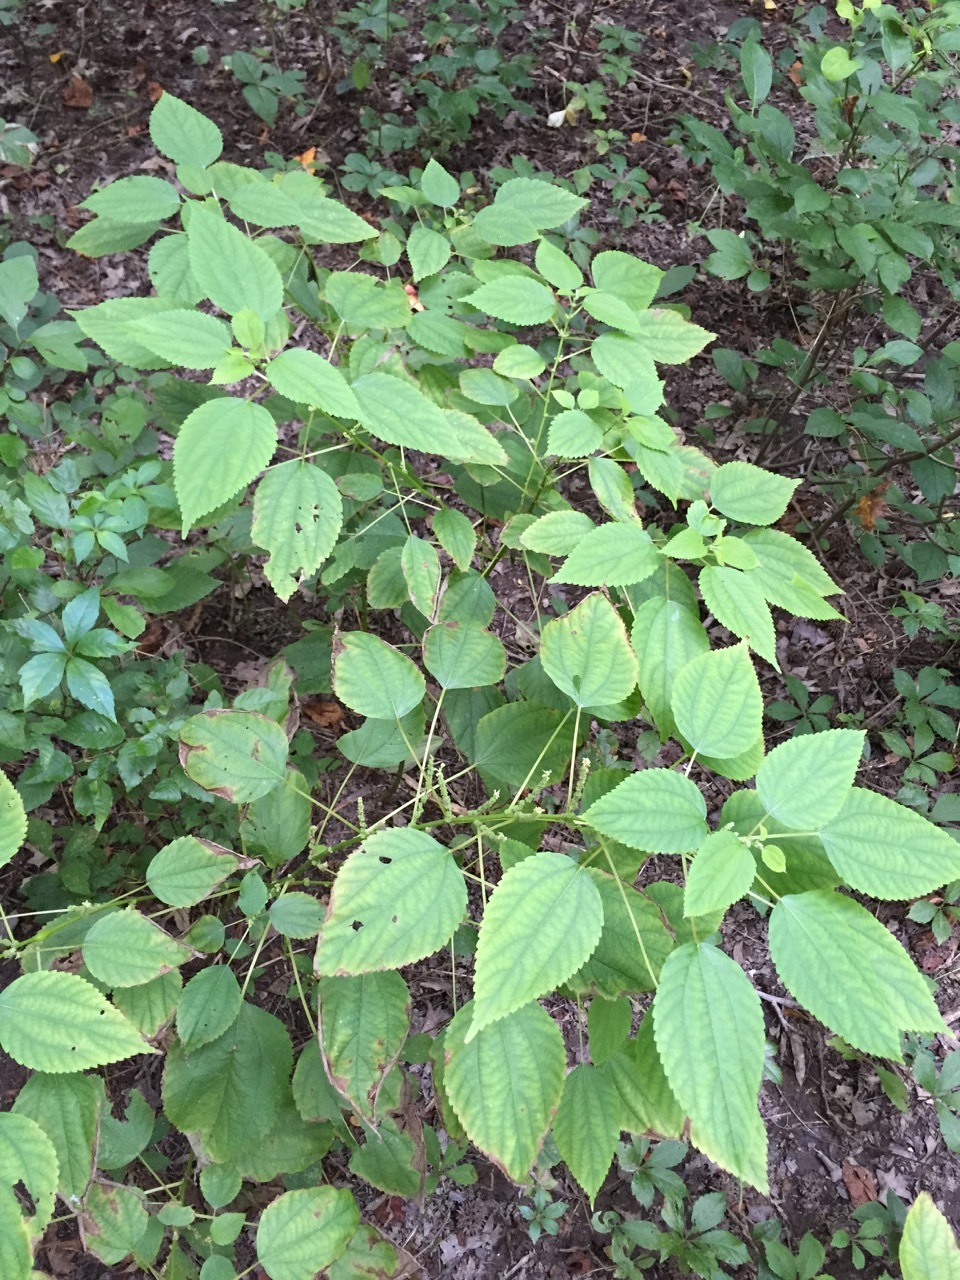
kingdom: Plantae
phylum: Tracheophyta
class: Magnoliopsida
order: Rosales
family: Urticaceae
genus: Boehmeria
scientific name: Boehmeria cylindrica
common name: Bog-hemp
